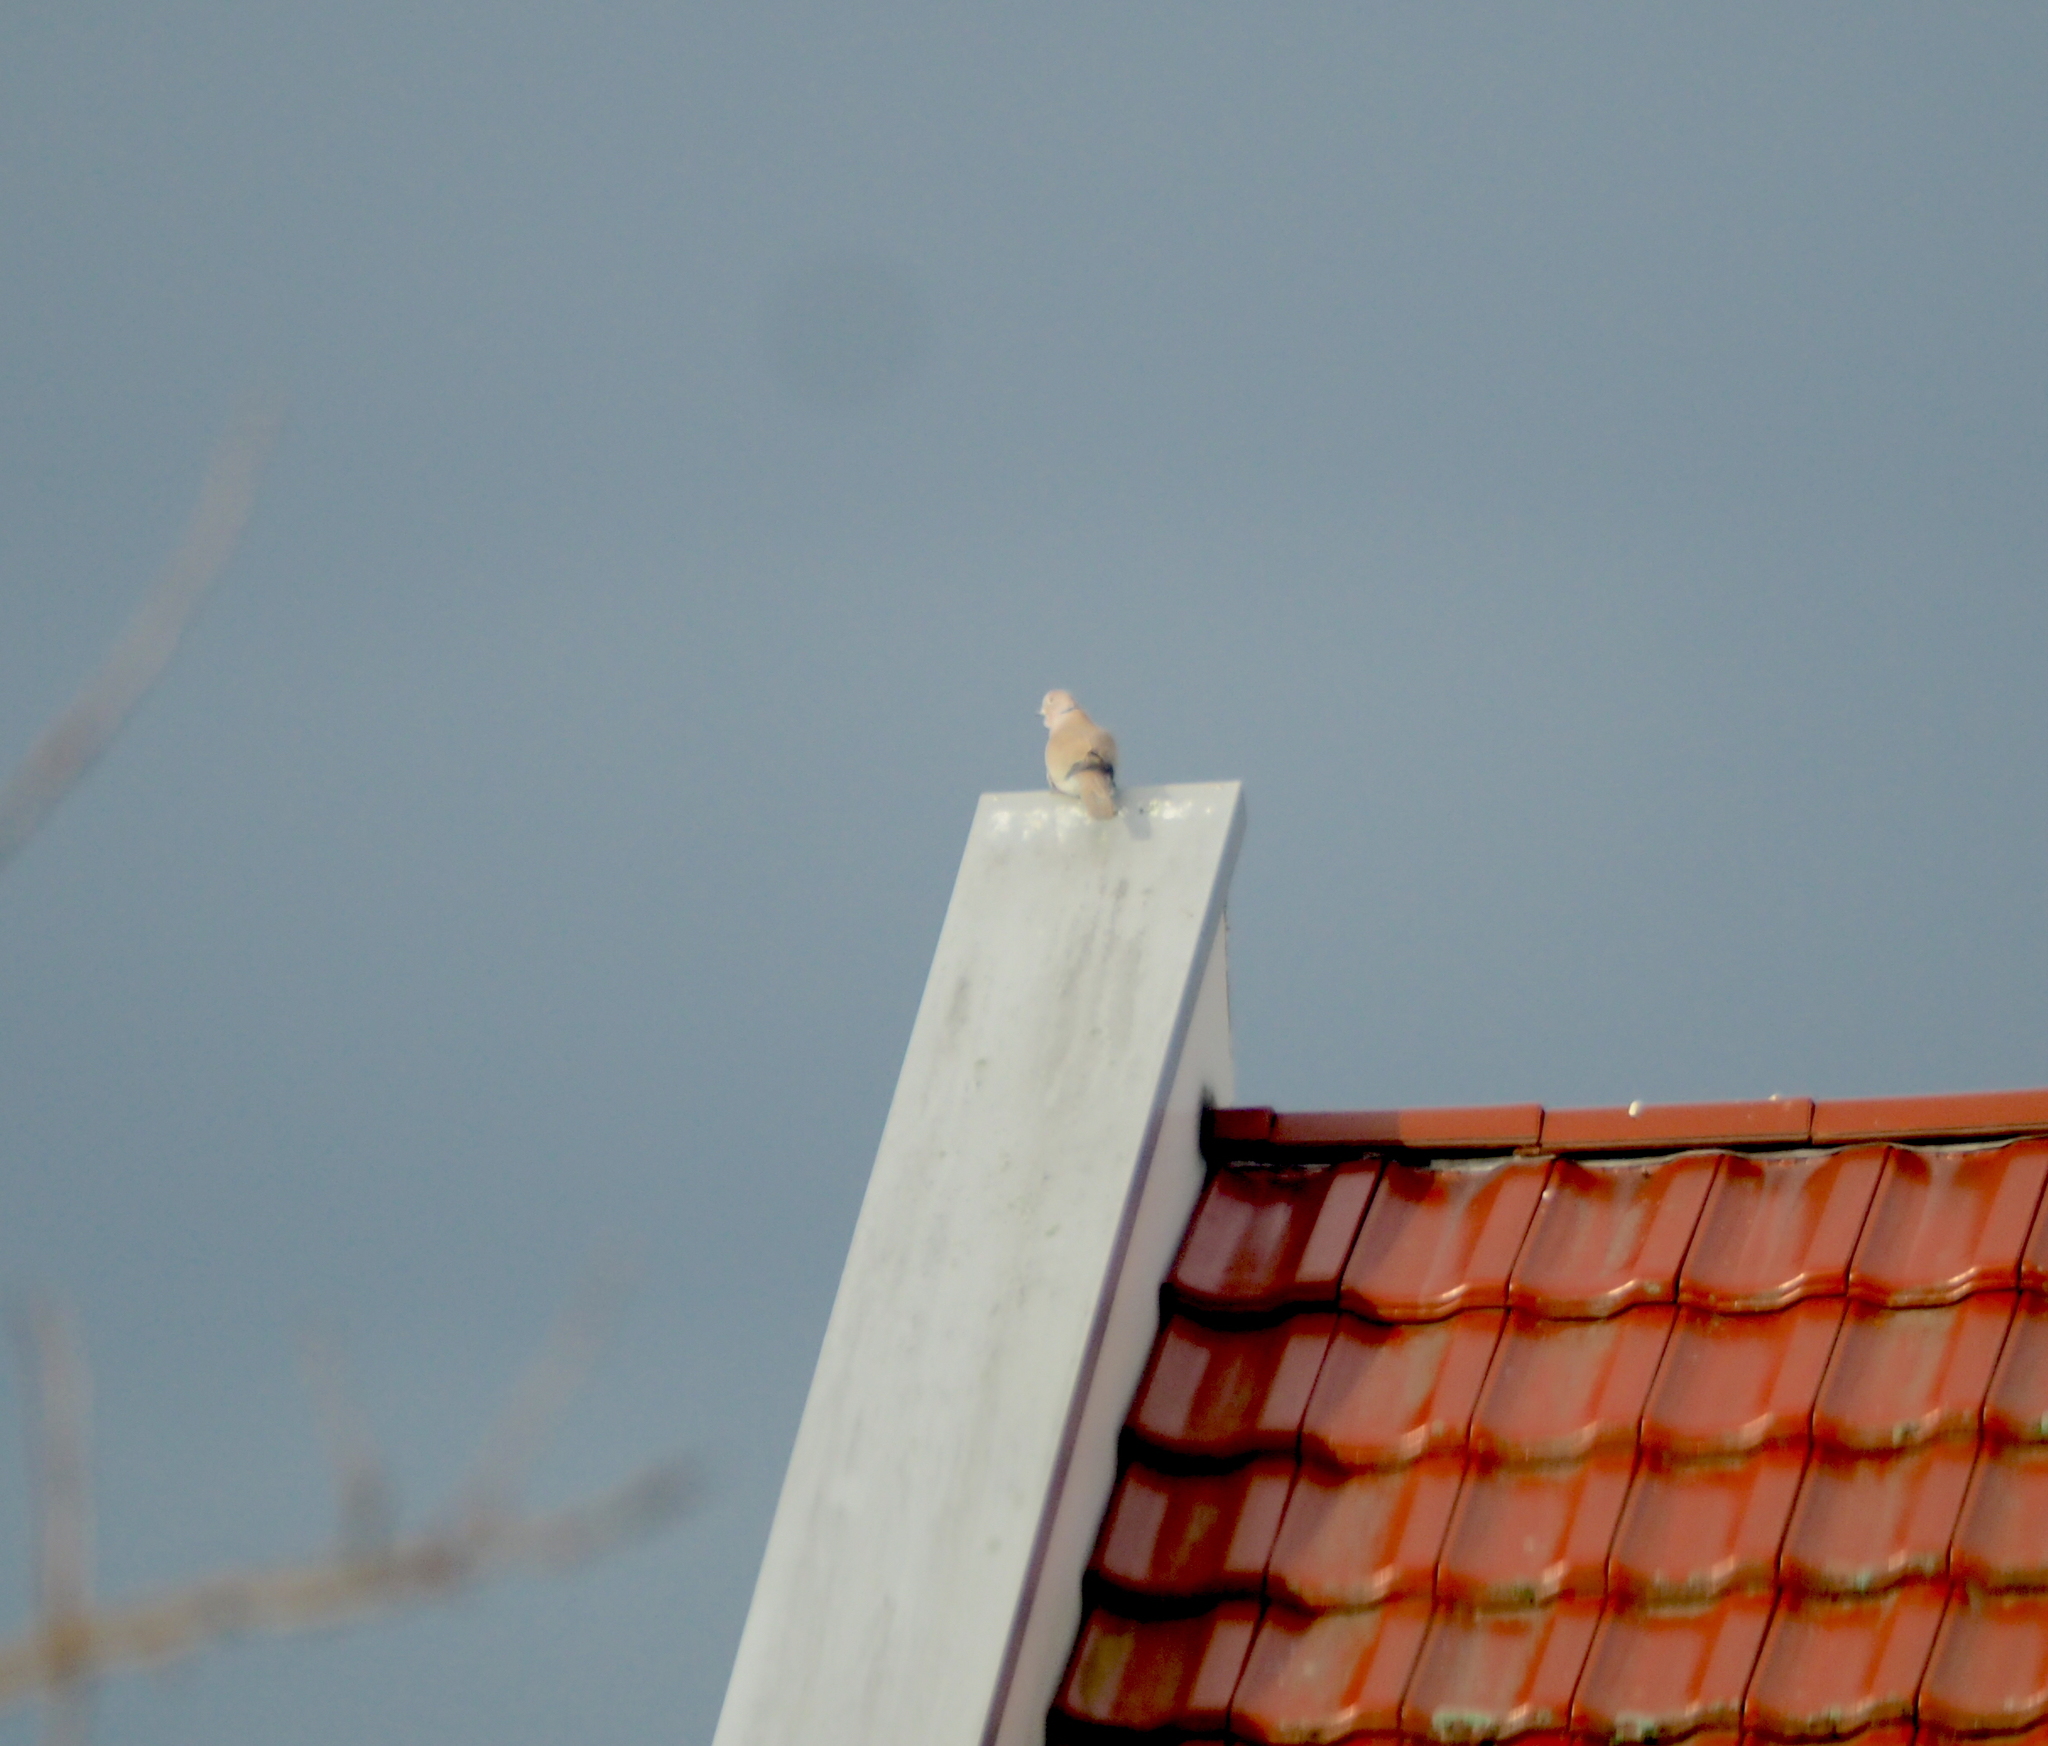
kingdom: Animalia
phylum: Chordata
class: Aves
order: Columbiformes
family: Columbidae
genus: Streptopelia
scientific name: Streptopelia decaocto
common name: Eurasian collared dove
